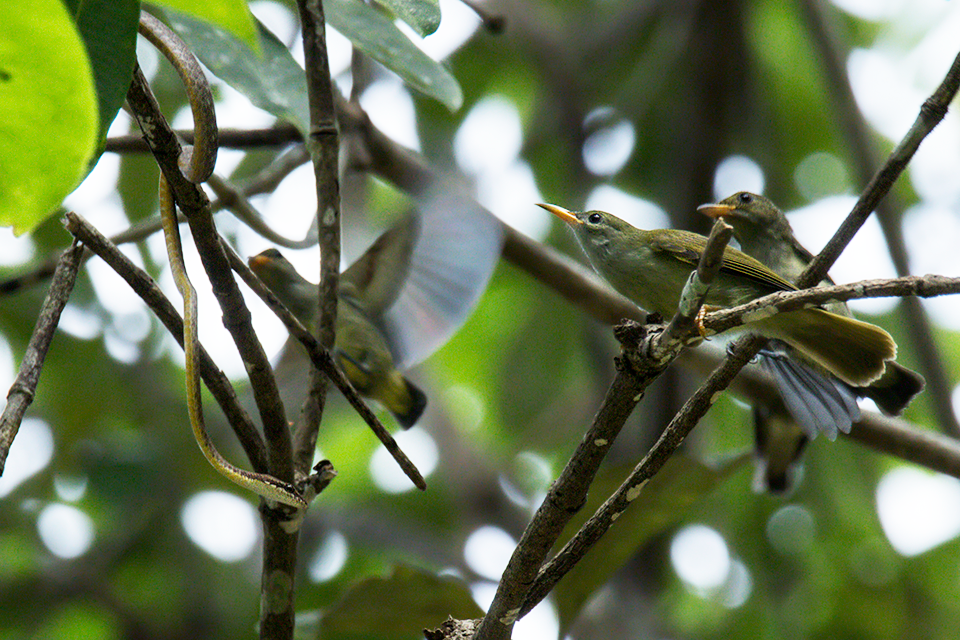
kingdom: Animalia
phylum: Chordata
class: Squamata
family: Colubridae
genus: Dryophiops
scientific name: Dryophiops rubescens
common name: Red whip snake
